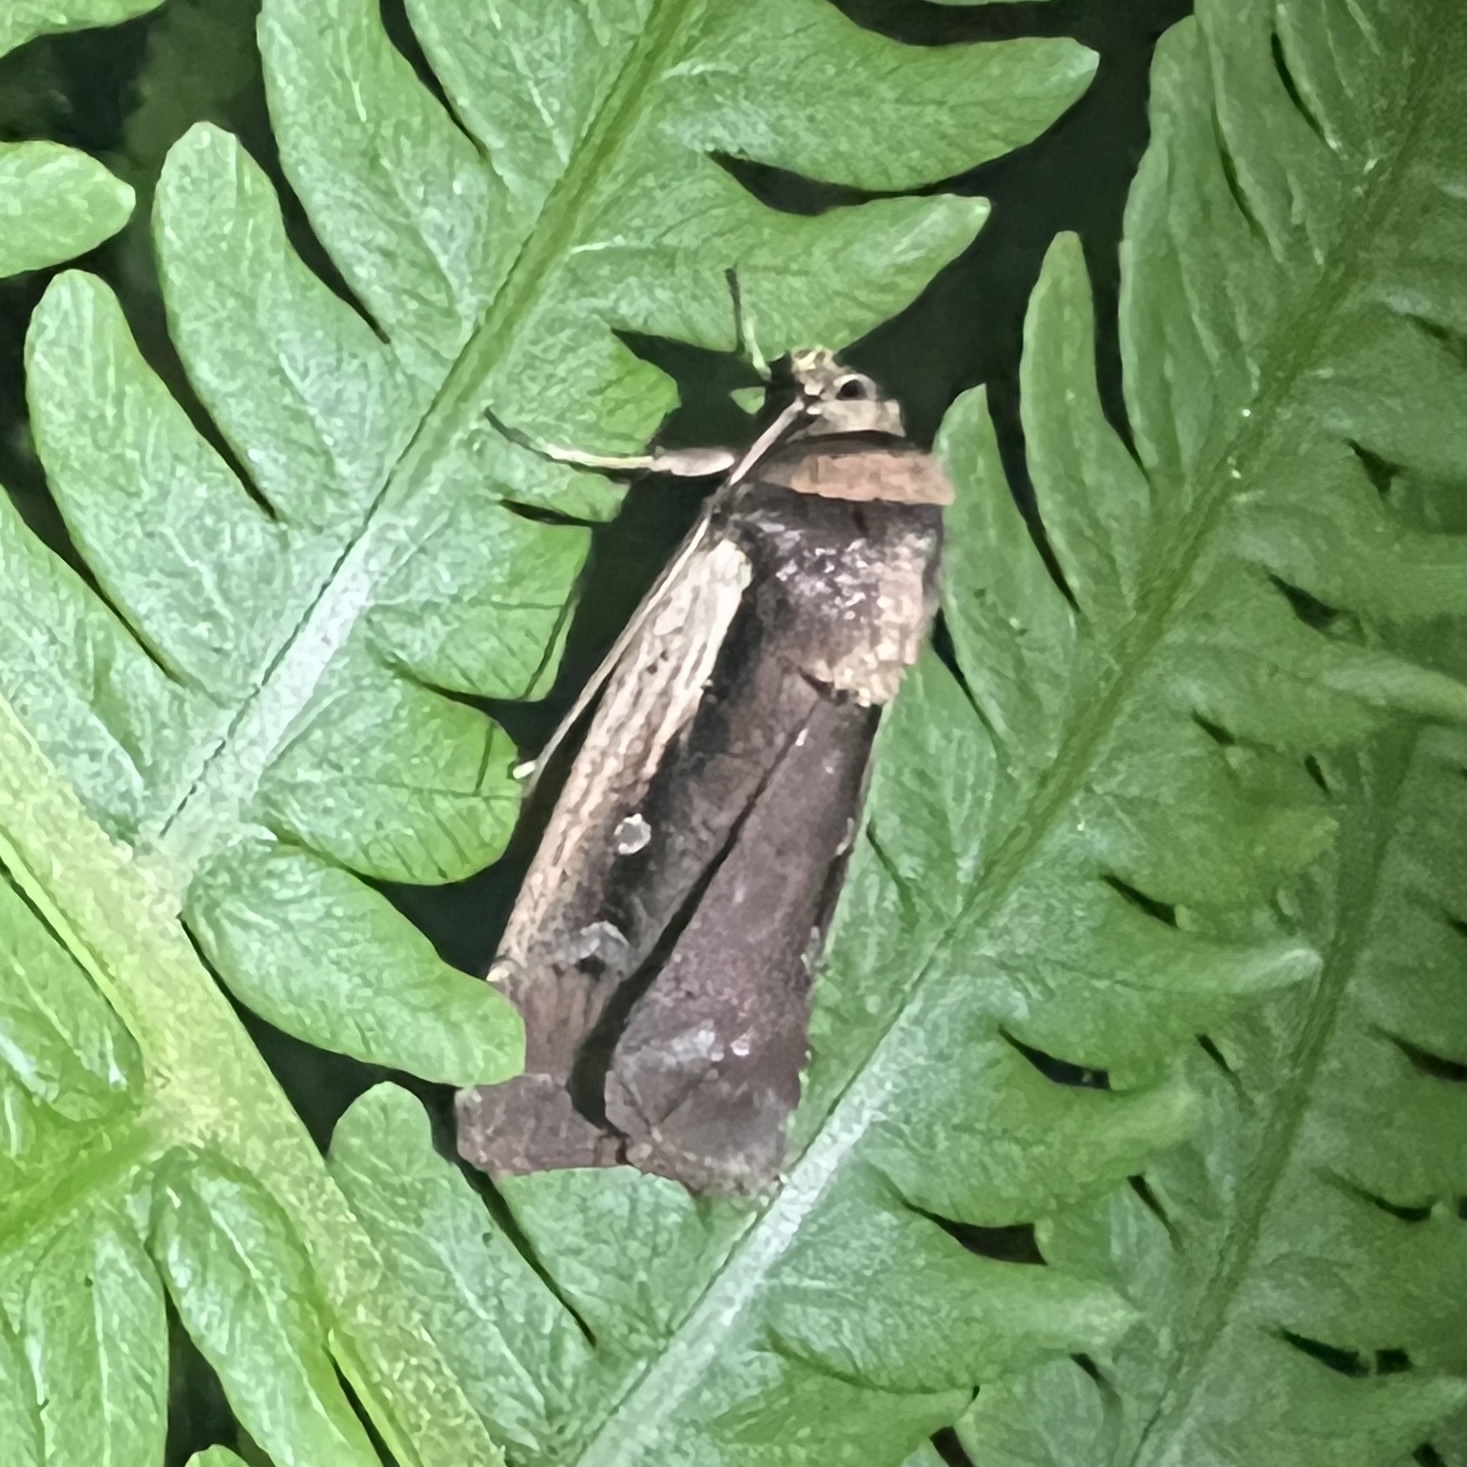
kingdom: Animalia
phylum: Arthropoda
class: Insecta
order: Lepidoptera
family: Noctuidae
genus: Ochropleura
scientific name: Ochropleura implecta
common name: Flame-shouldered dart
